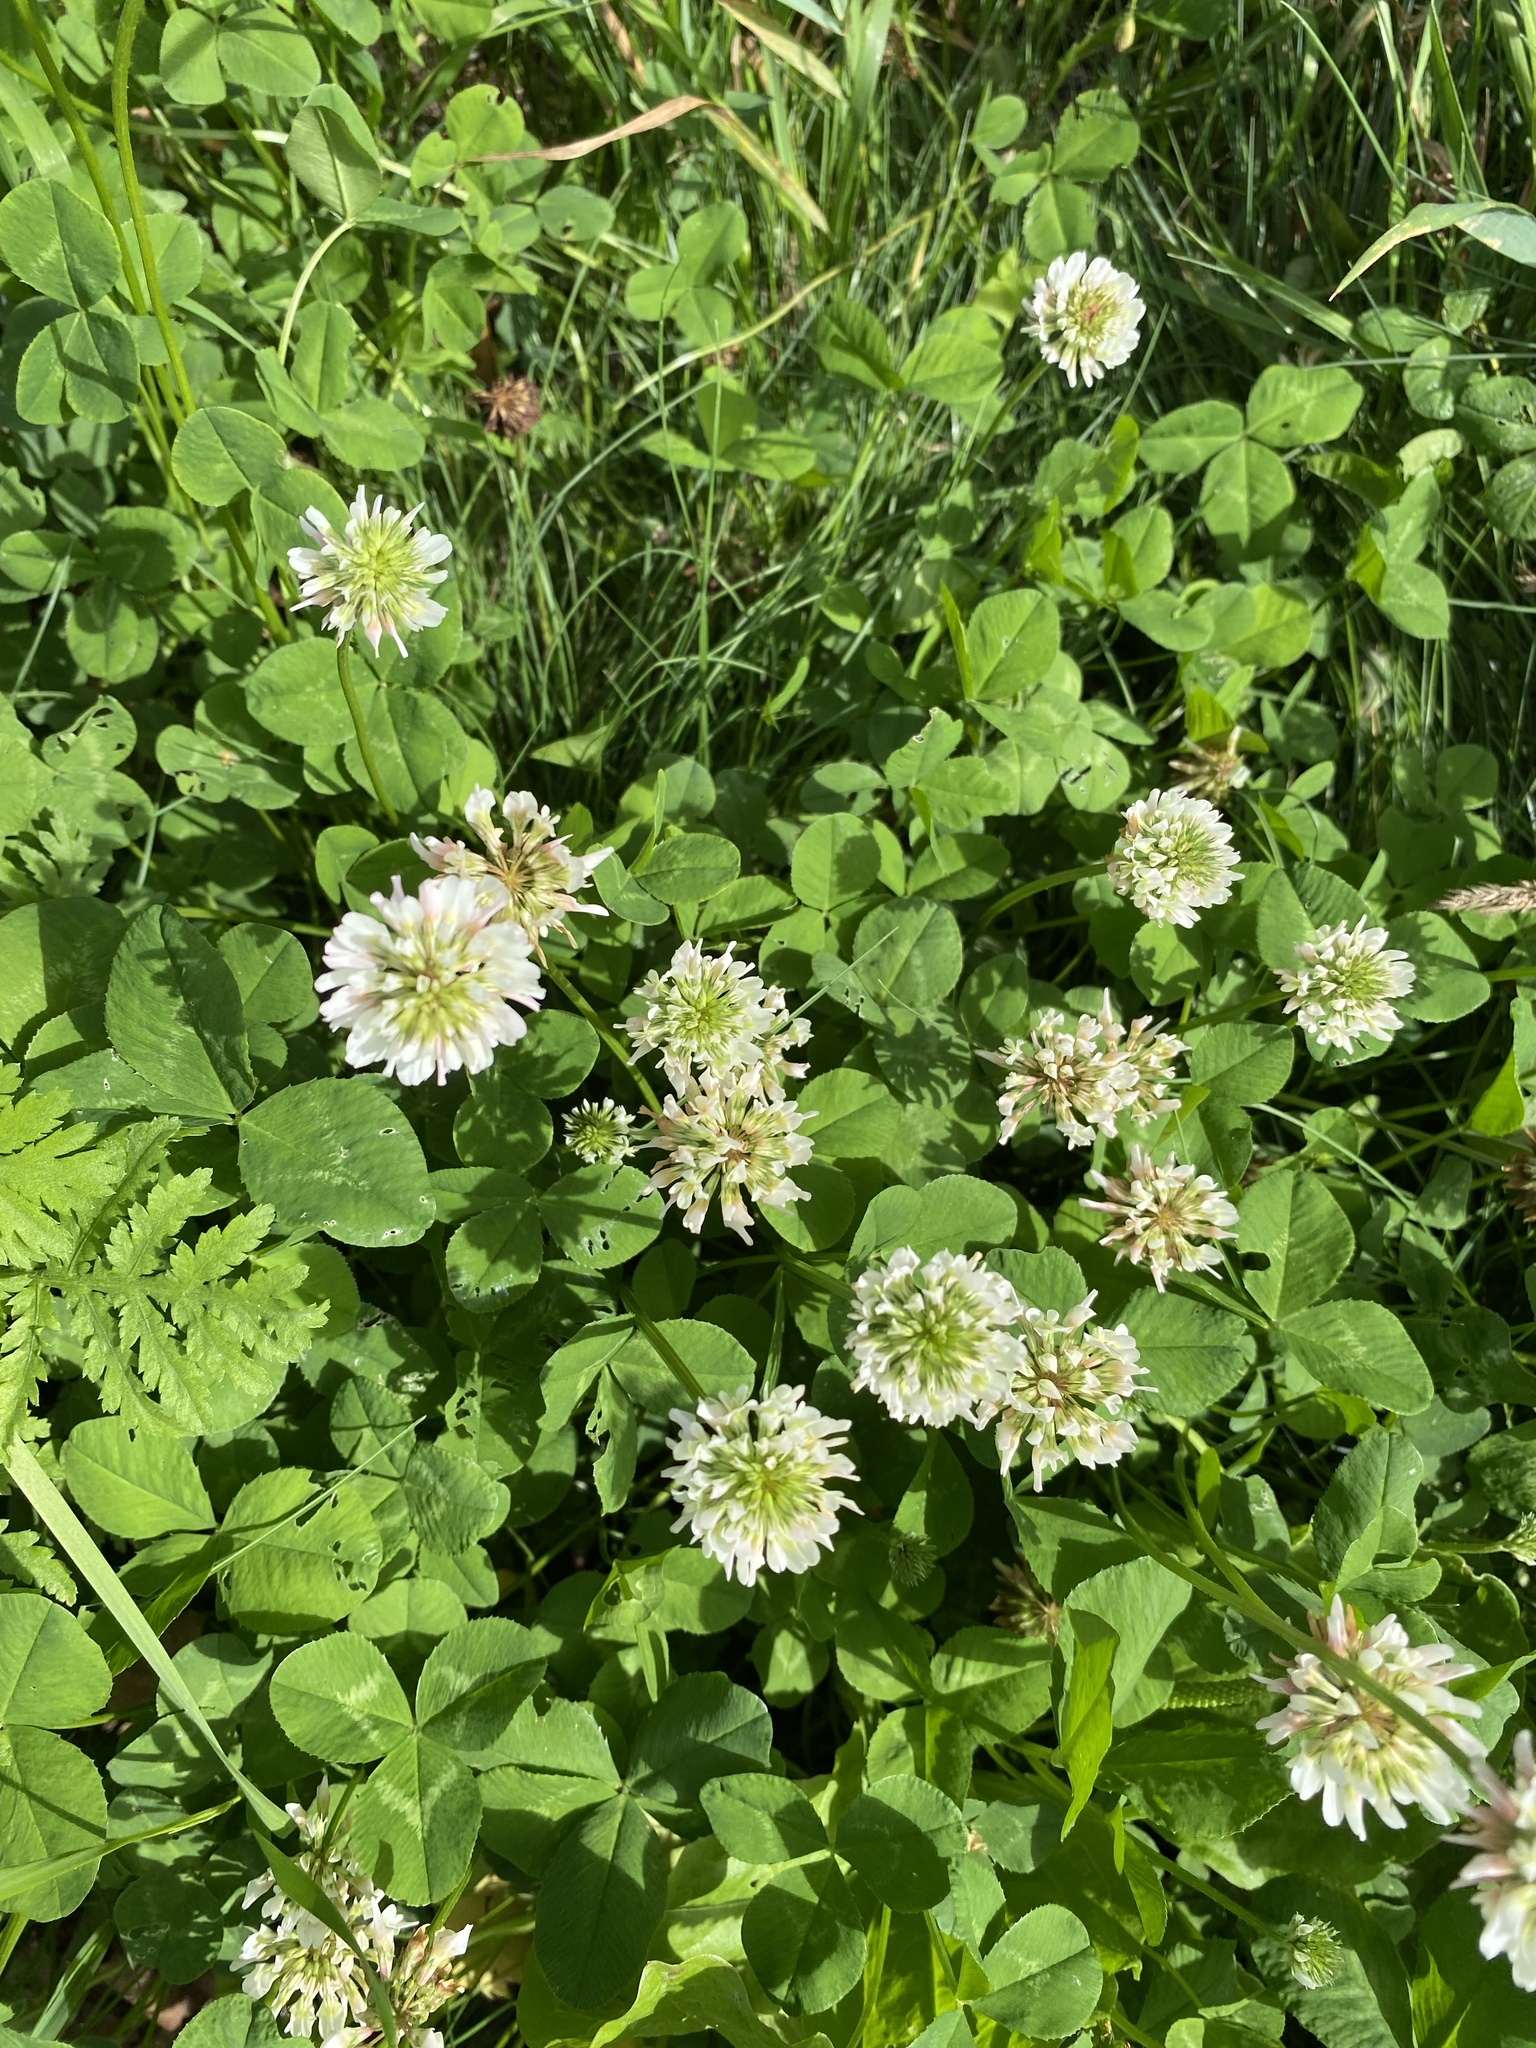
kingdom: Plantae
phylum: Tracheophyta
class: Magnoliopsida
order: Fabales
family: Fabaceae
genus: Trifolium
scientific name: Trifolium repens
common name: White clover
